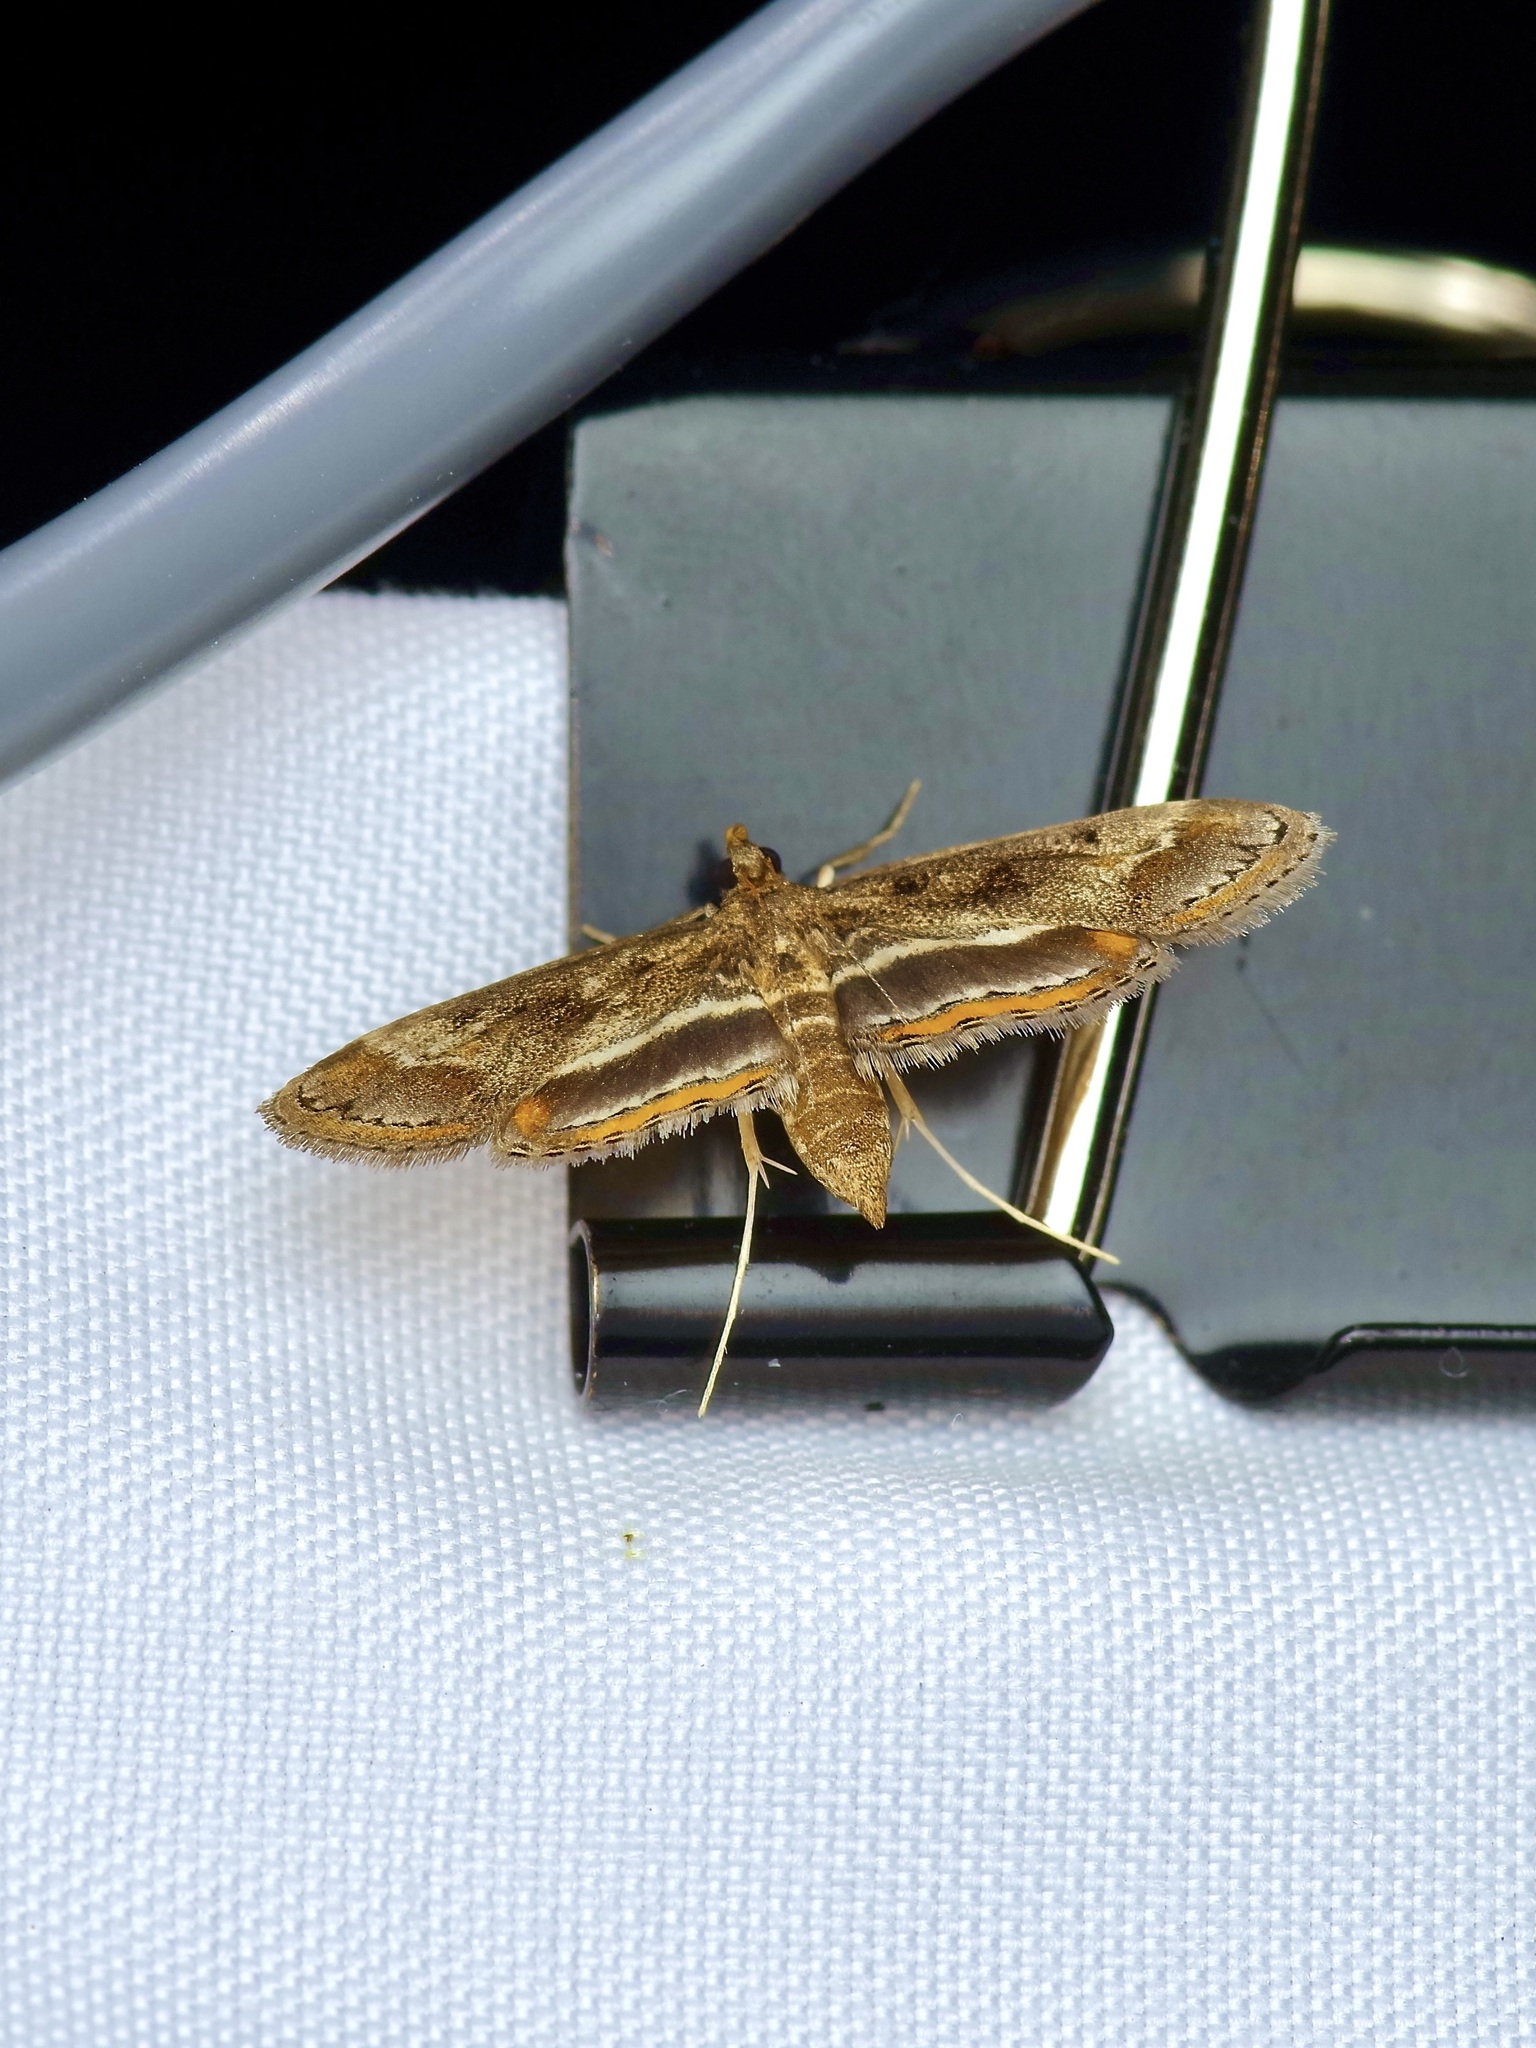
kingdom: Animalia
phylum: Arthropoda
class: Insecta
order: Lepidoptera
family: Crambidae
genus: Parapoynx
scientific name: Parapoynx obscuralis
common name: American china-mark
